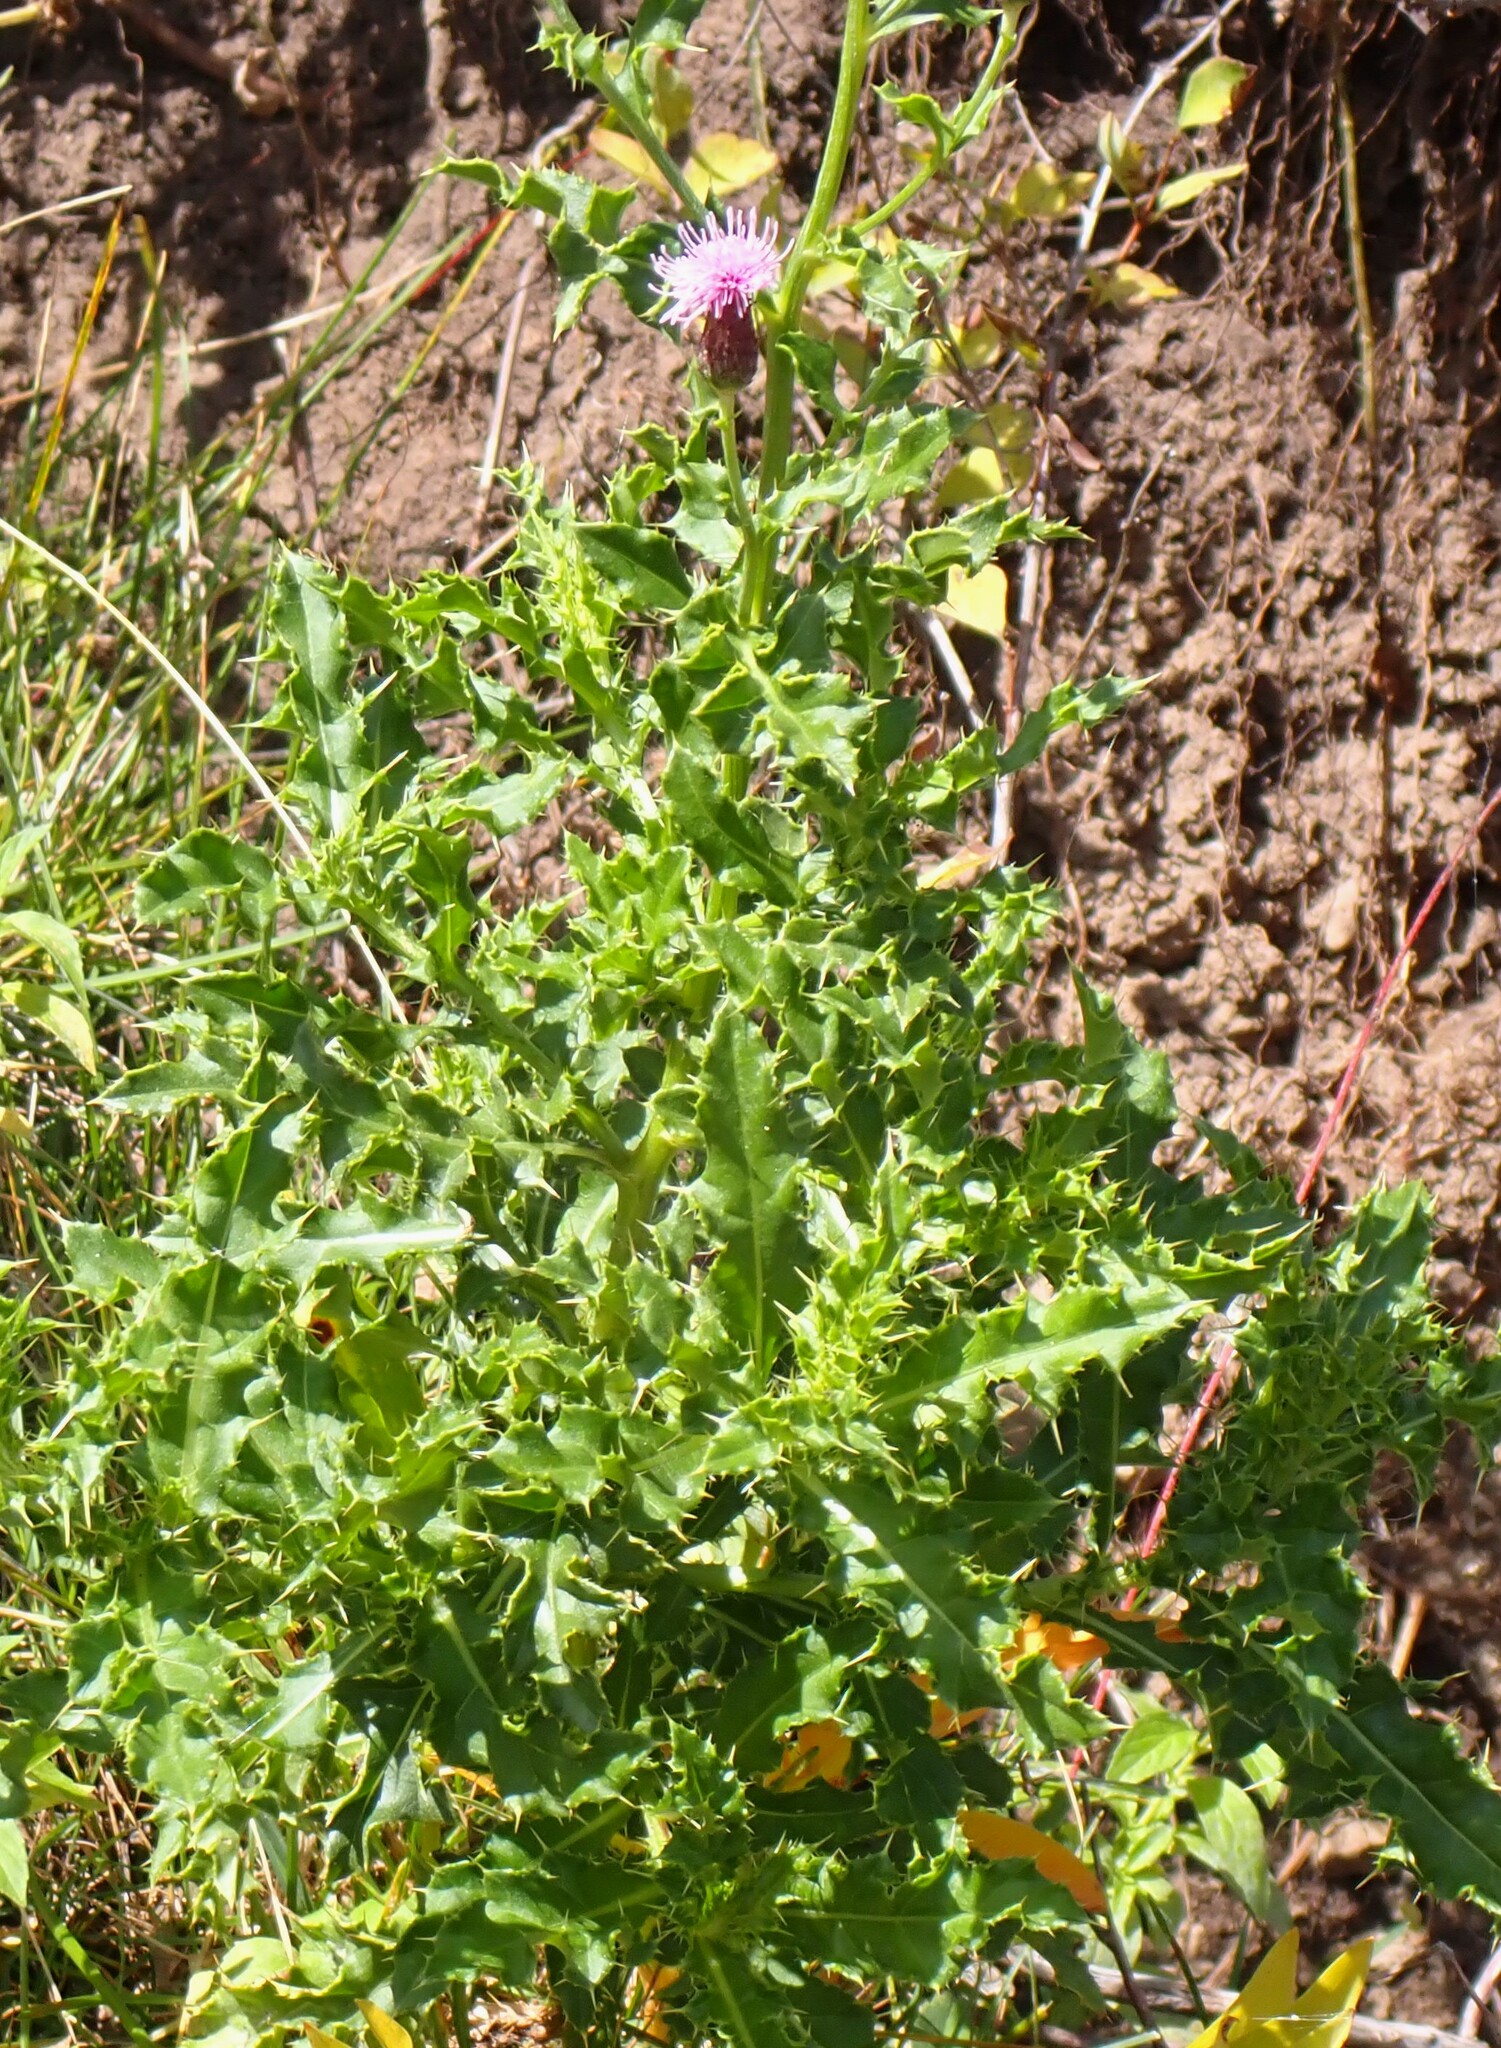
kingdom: Plantae
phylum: Tracheophyta
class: Magnoliopsida
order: Asterales
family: Asteraceae
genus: Cirsium
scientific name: Cirsium arvense
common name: Creeping thistle
